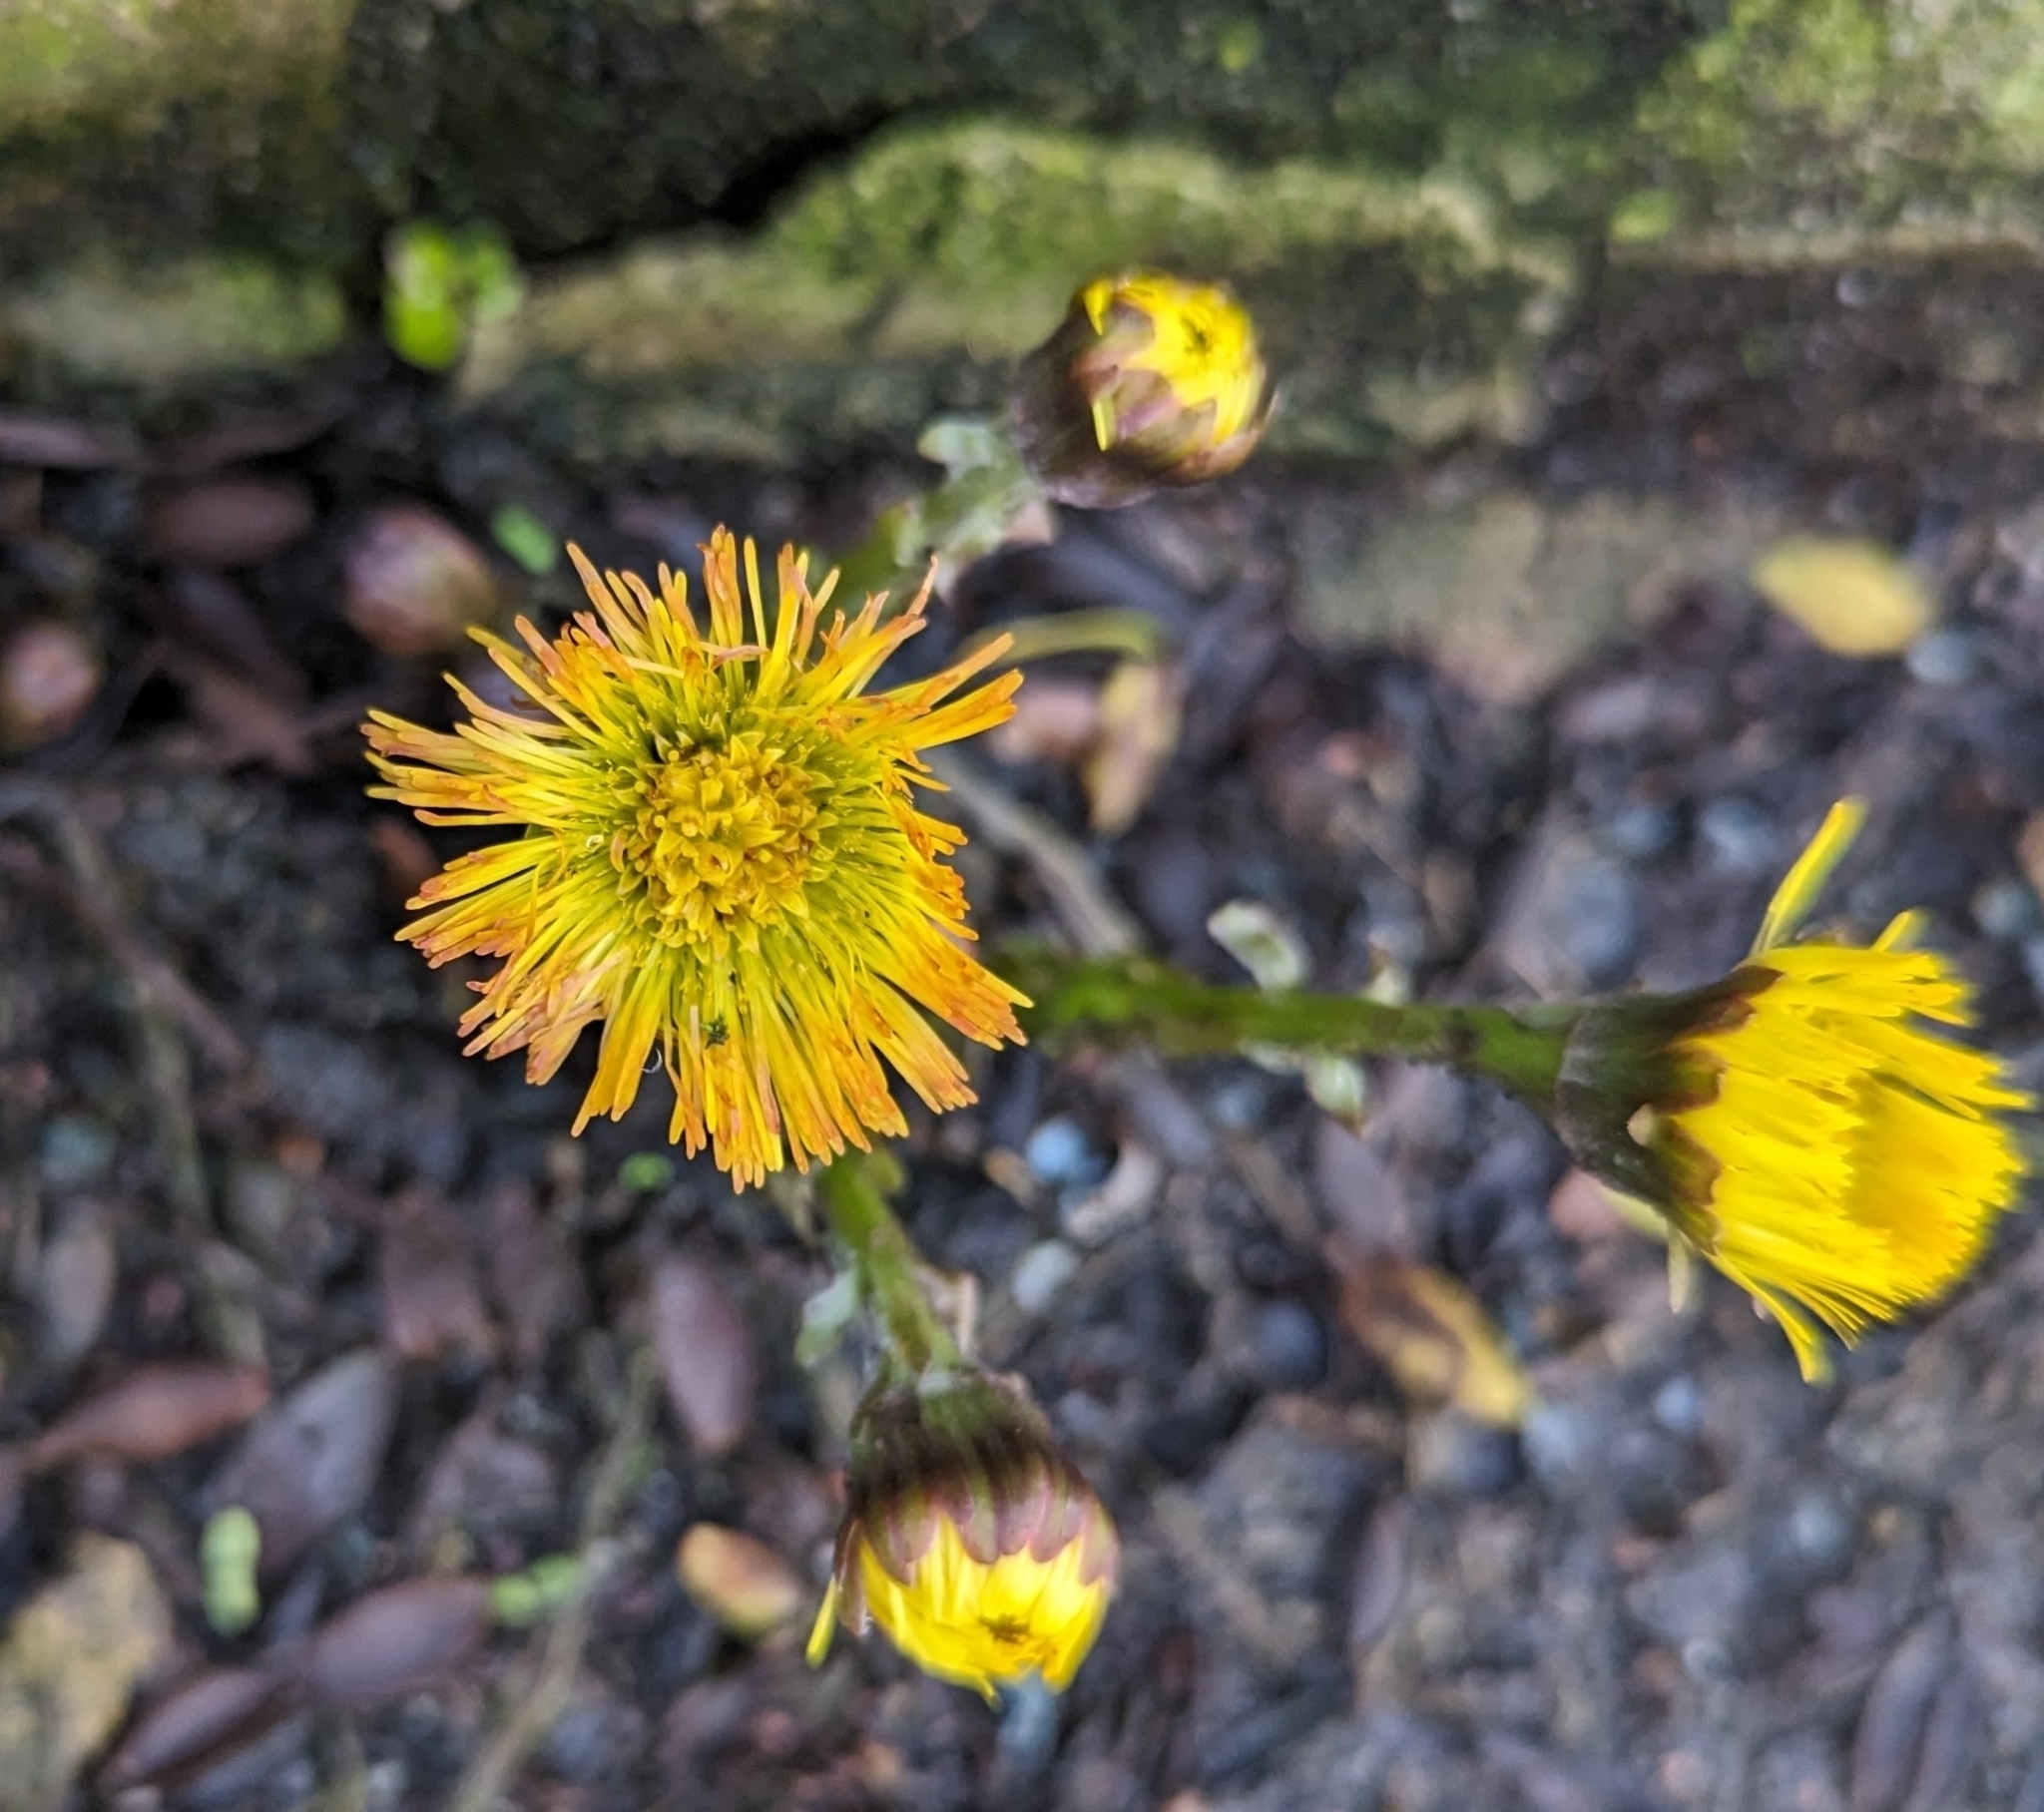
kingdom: Plantae
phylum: Tracheophyta
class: Magnoliopsida
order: Asterales
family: Asteraceae
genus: Tussilago
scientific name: Tussilago farfara
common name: Coltsfoot
